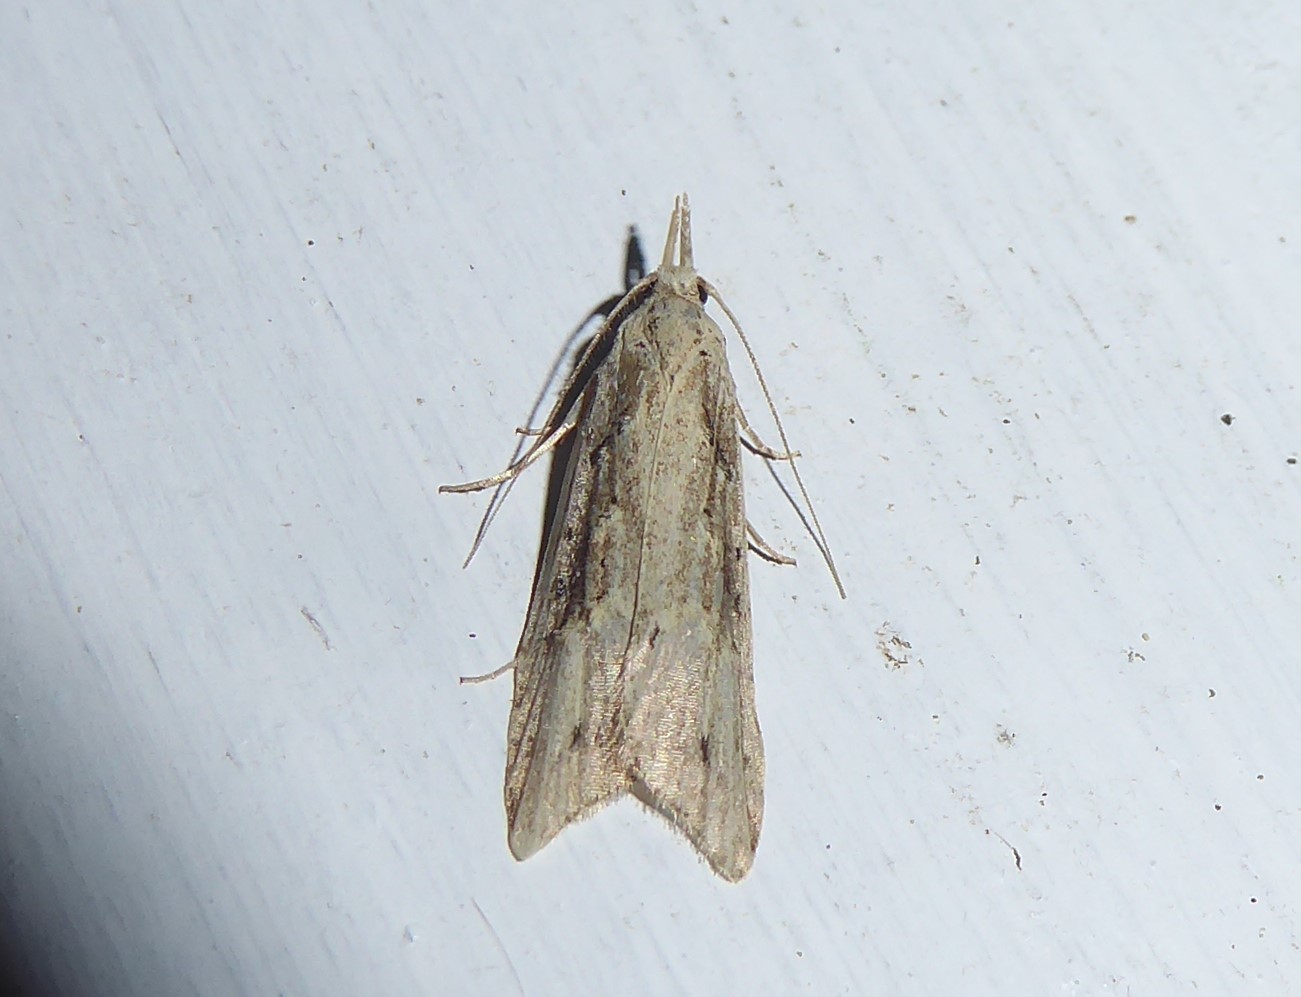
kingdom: Animalia
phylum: Arthropoda
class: Insecta
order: Lepidoptera
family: Carposinidae
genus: Carposina
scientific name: Carposina Heterocrossa exochana
